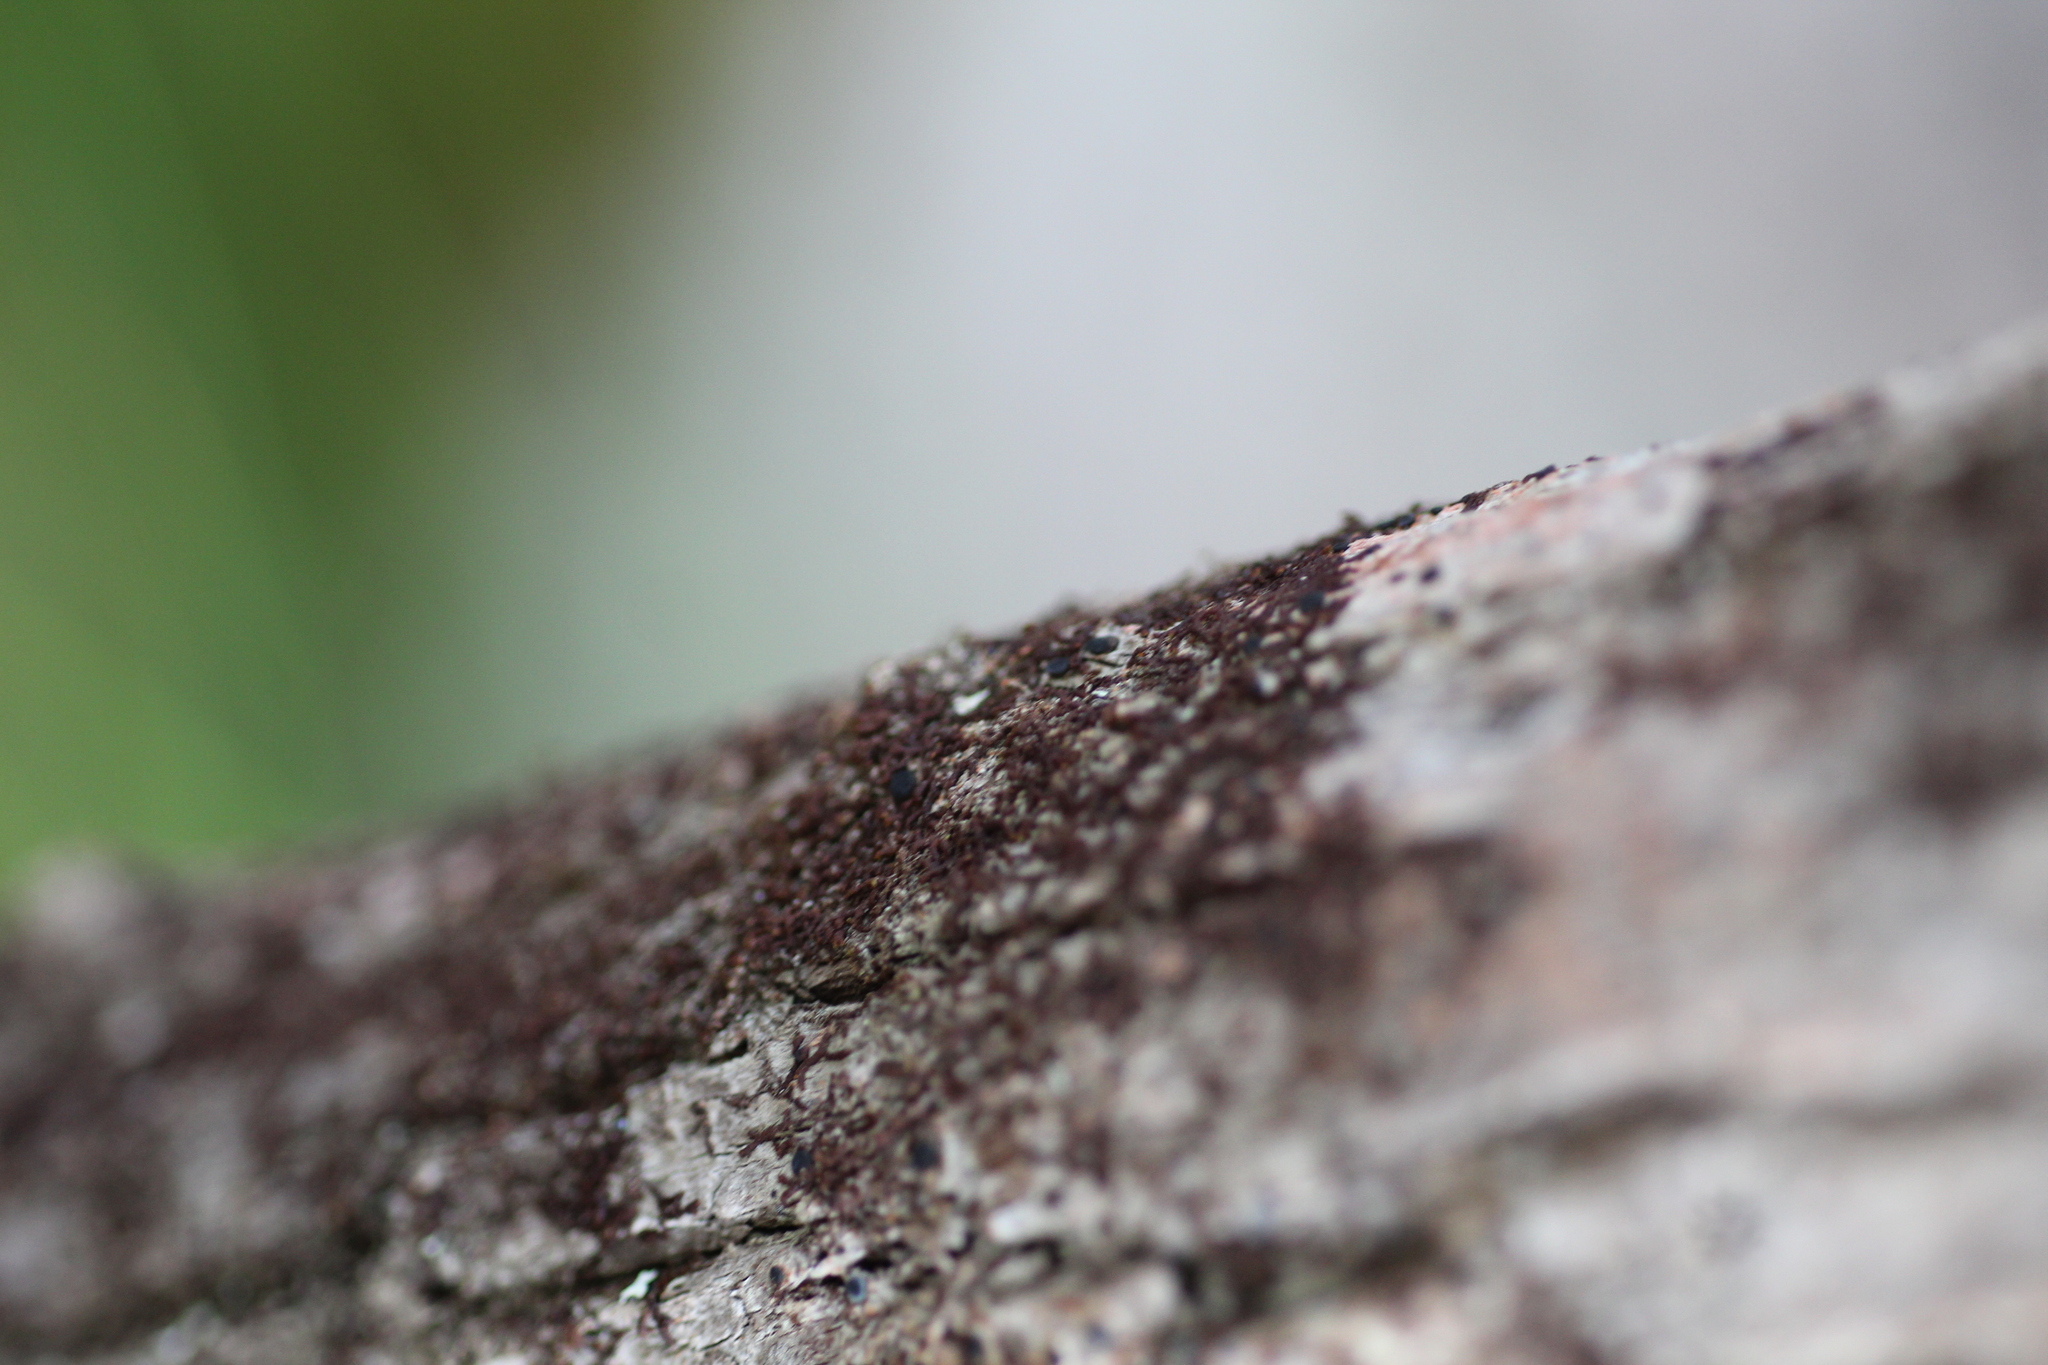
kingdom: Plantae
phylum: Marchantiophyta
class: Jungermanniopsida
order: Porellales
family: Frullaniaceae
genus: Frullania
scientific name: Frullania pentapleura
